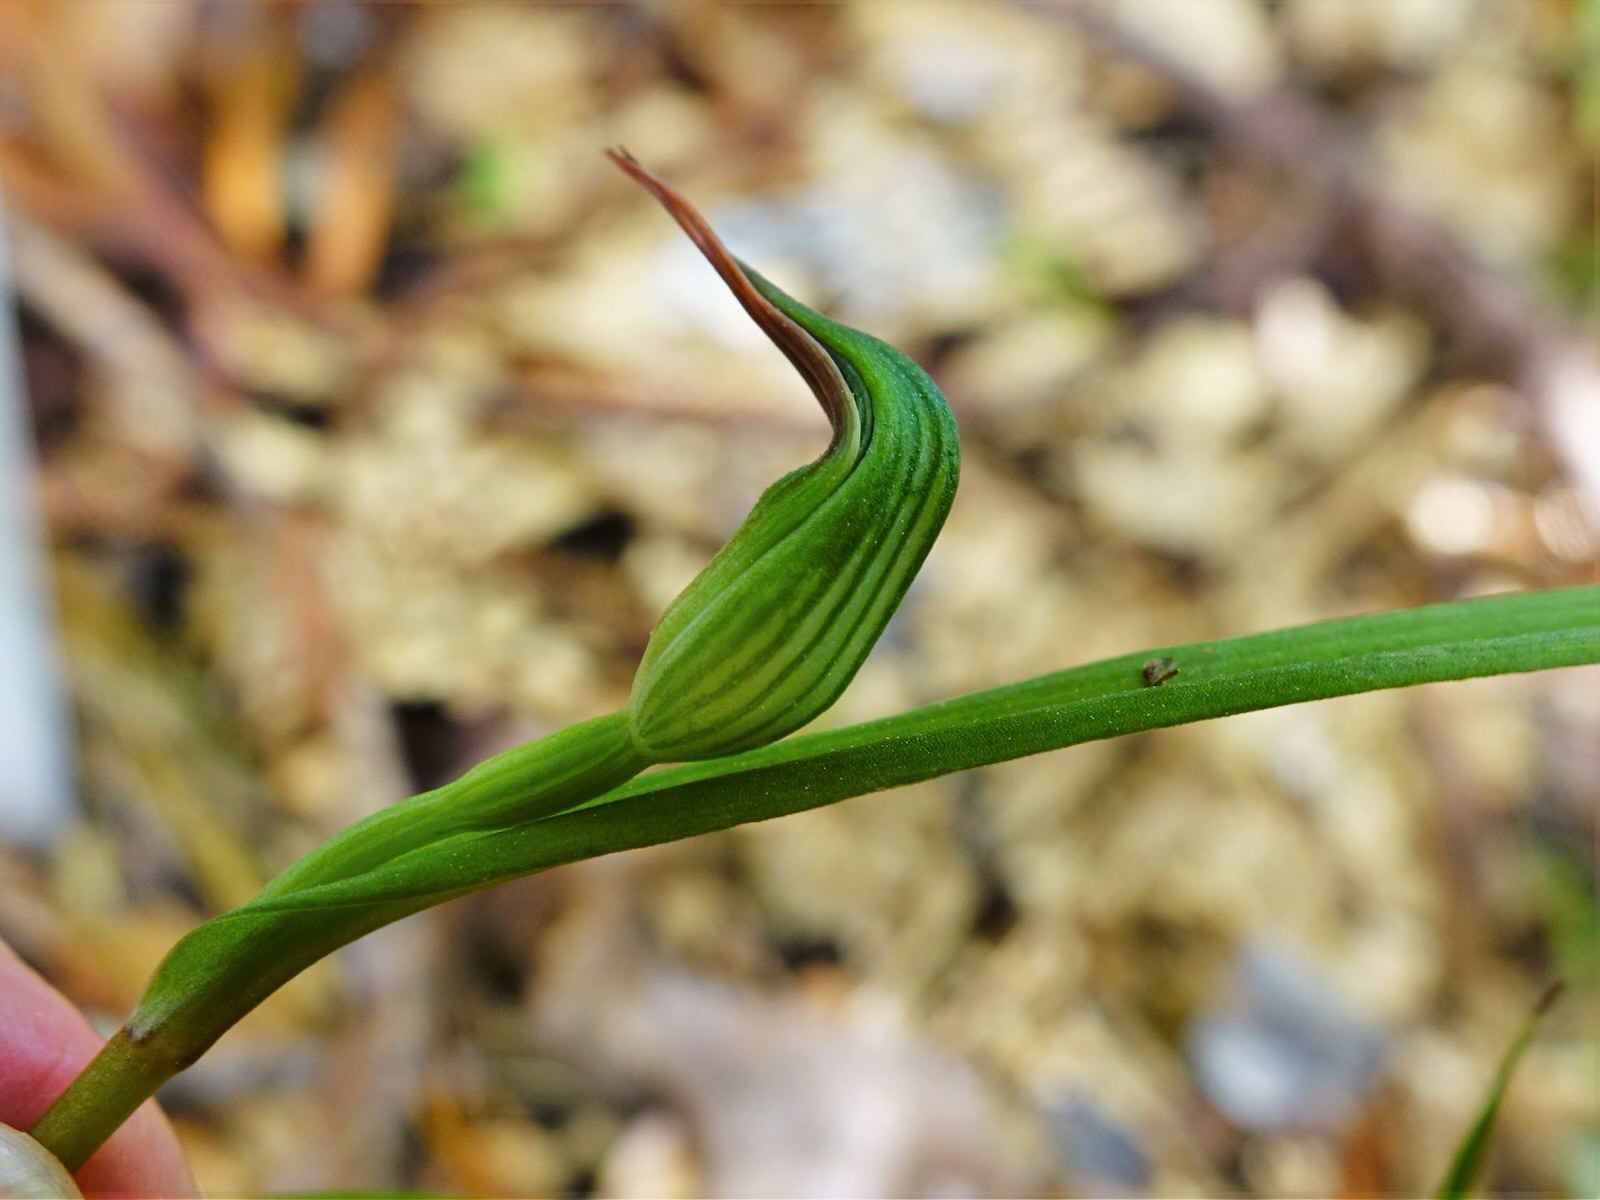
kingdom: Plantae
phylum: Tracheophyta
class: Liliopsida
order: Asparagales
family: Orchidaceae
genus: Pterostylis
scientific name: Pterostylis agathicola
